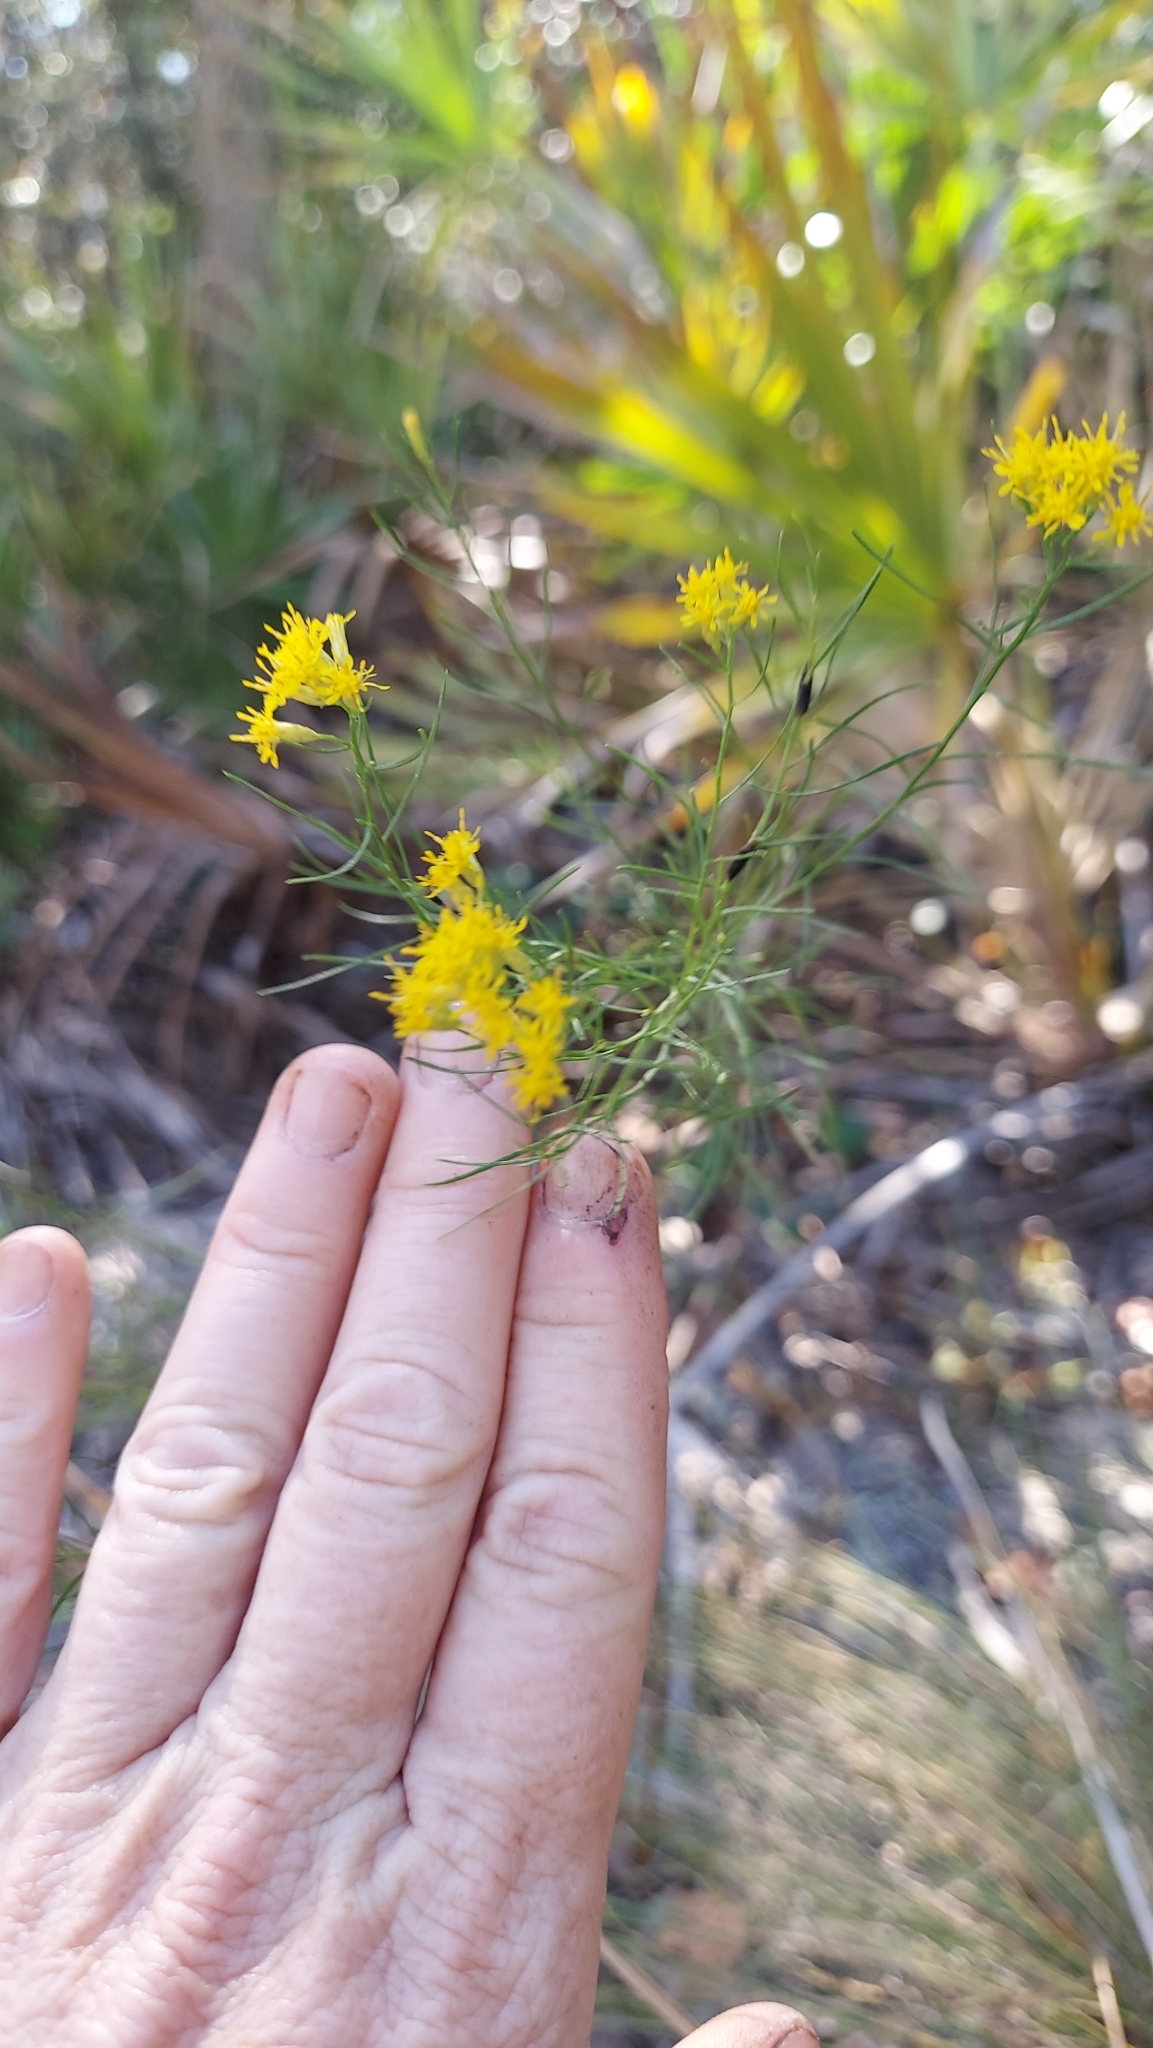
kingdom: Plantae
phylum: Tracheophyta
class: Magnoliopsida
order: Asterales
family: Asteraceae
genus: Euthamia
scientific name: Euthamia caroliniana
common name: Coastal plain goldentop
